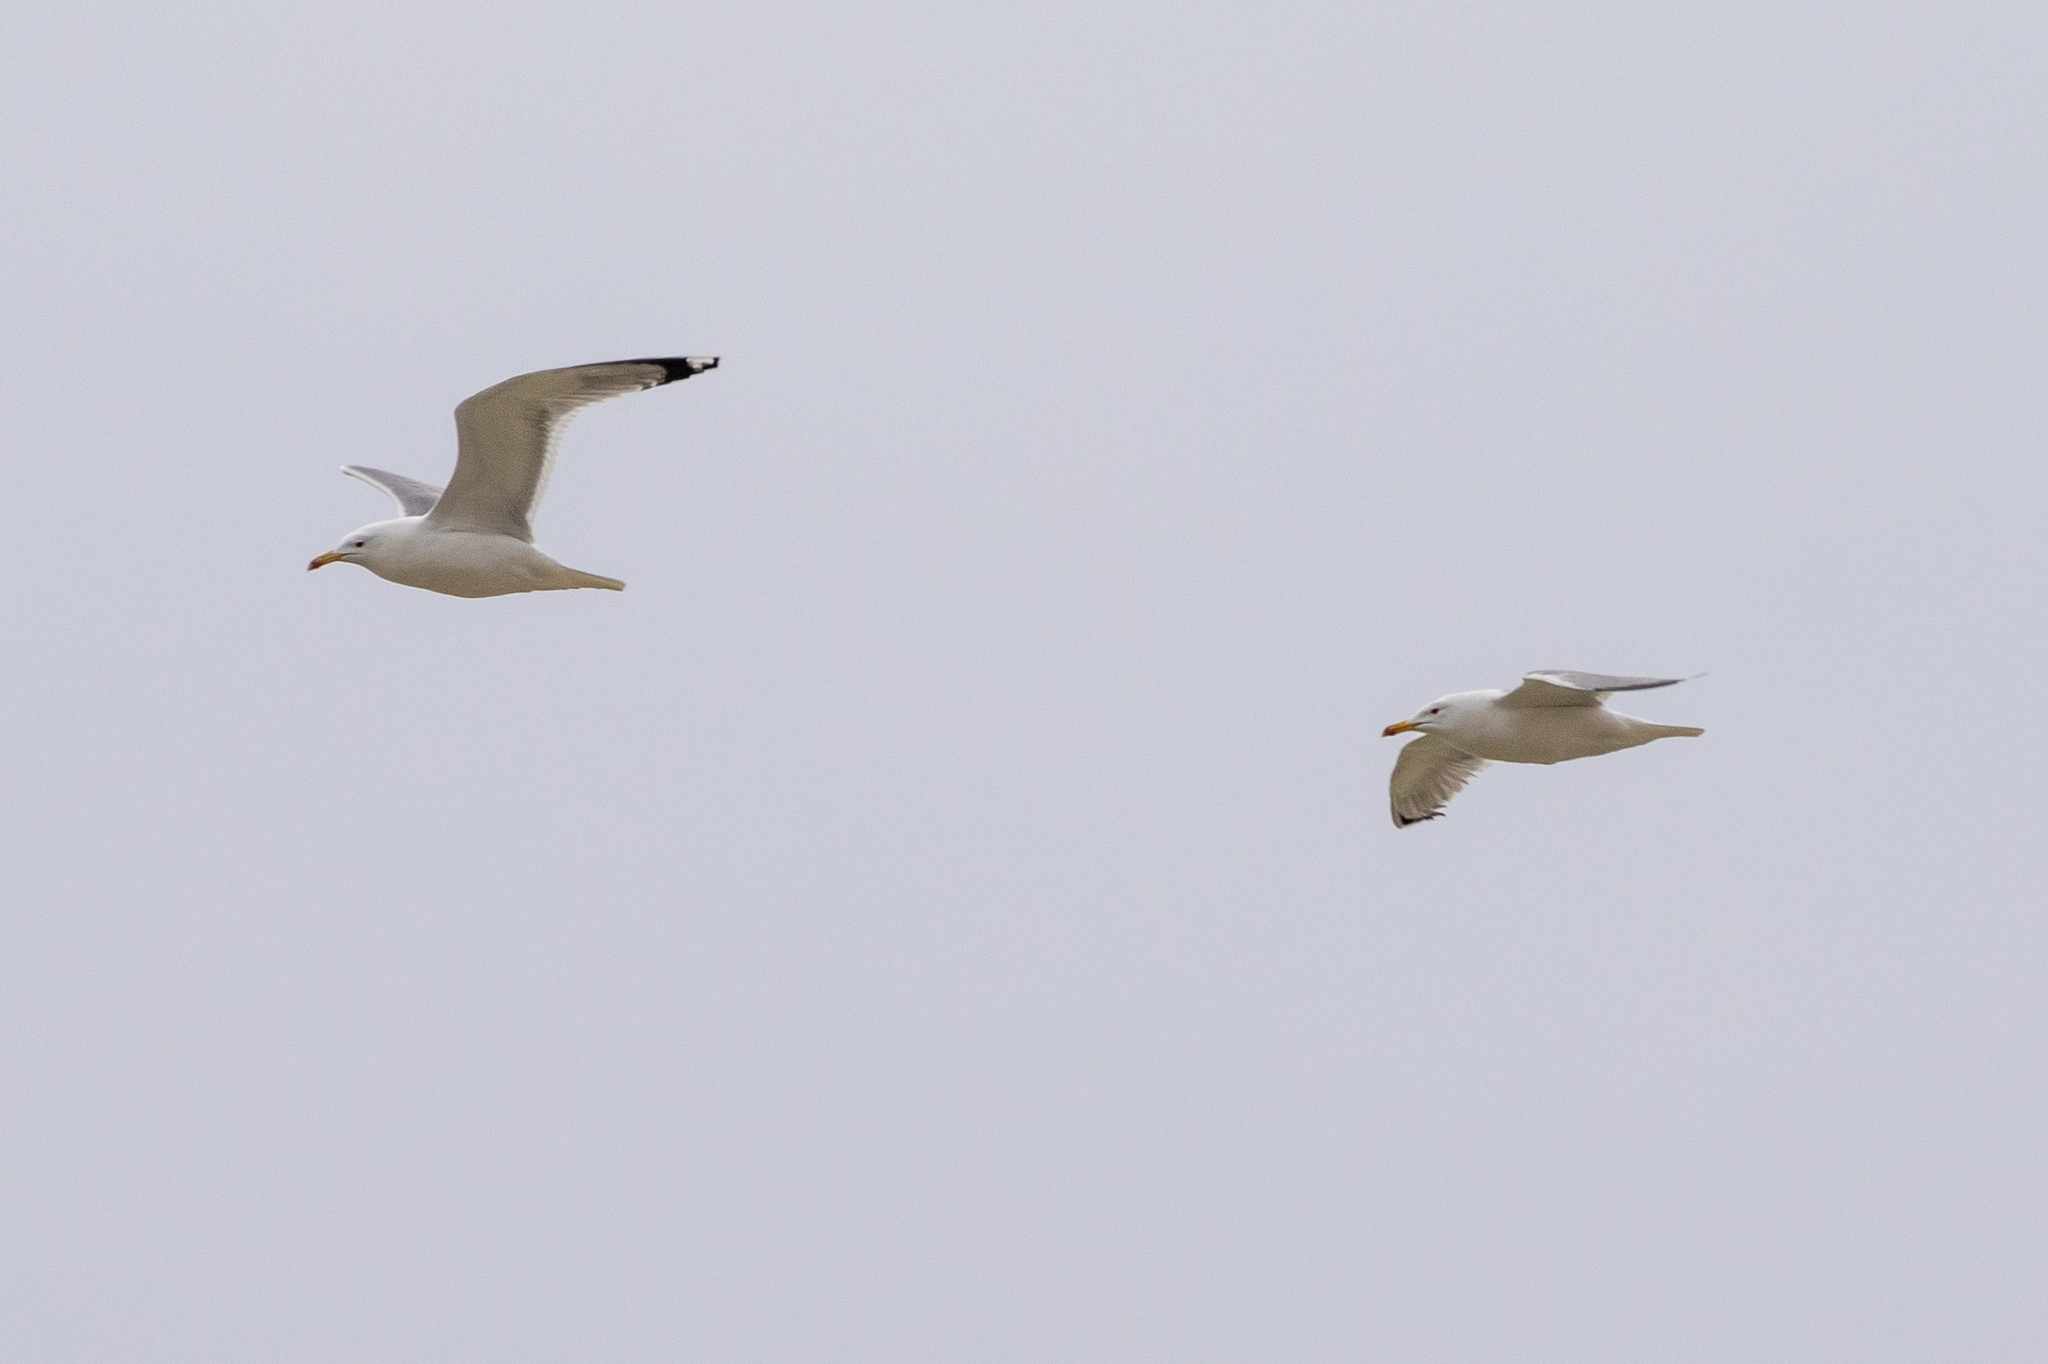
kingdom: Animalia
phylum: Chordata
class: Aves
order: Charadriiformes
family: Laridae
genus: Larus
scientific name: Larus cachinnans
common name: Caspian gull
